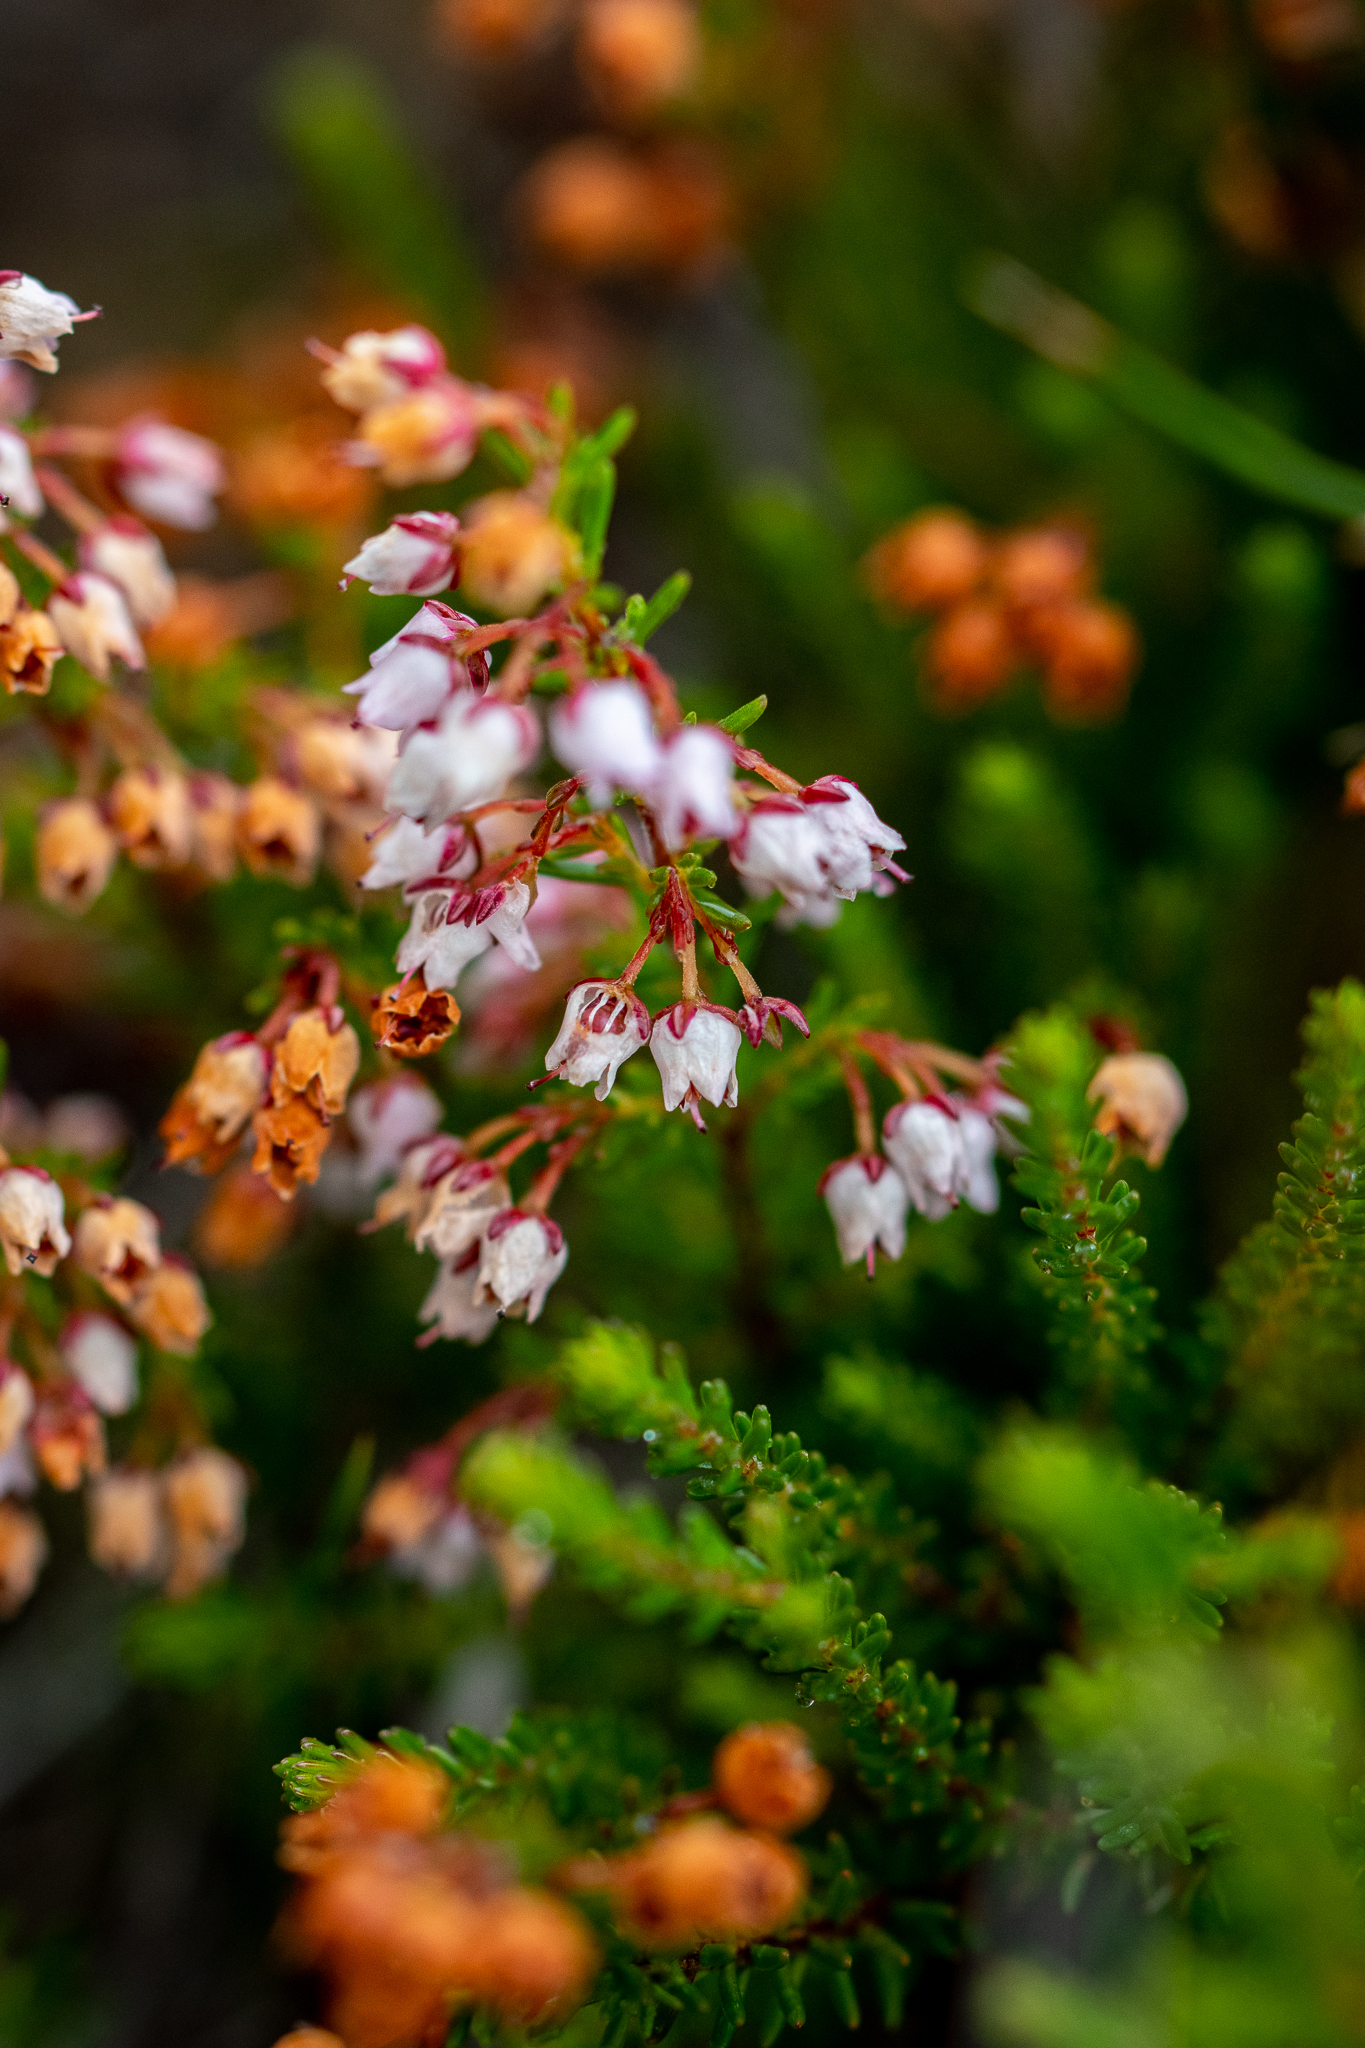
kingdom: Plantae
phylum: Tracheophyta
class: Magnoliopsida
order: Ericales
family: Ericaceae
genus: Erica
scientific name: Erica curvirostris
